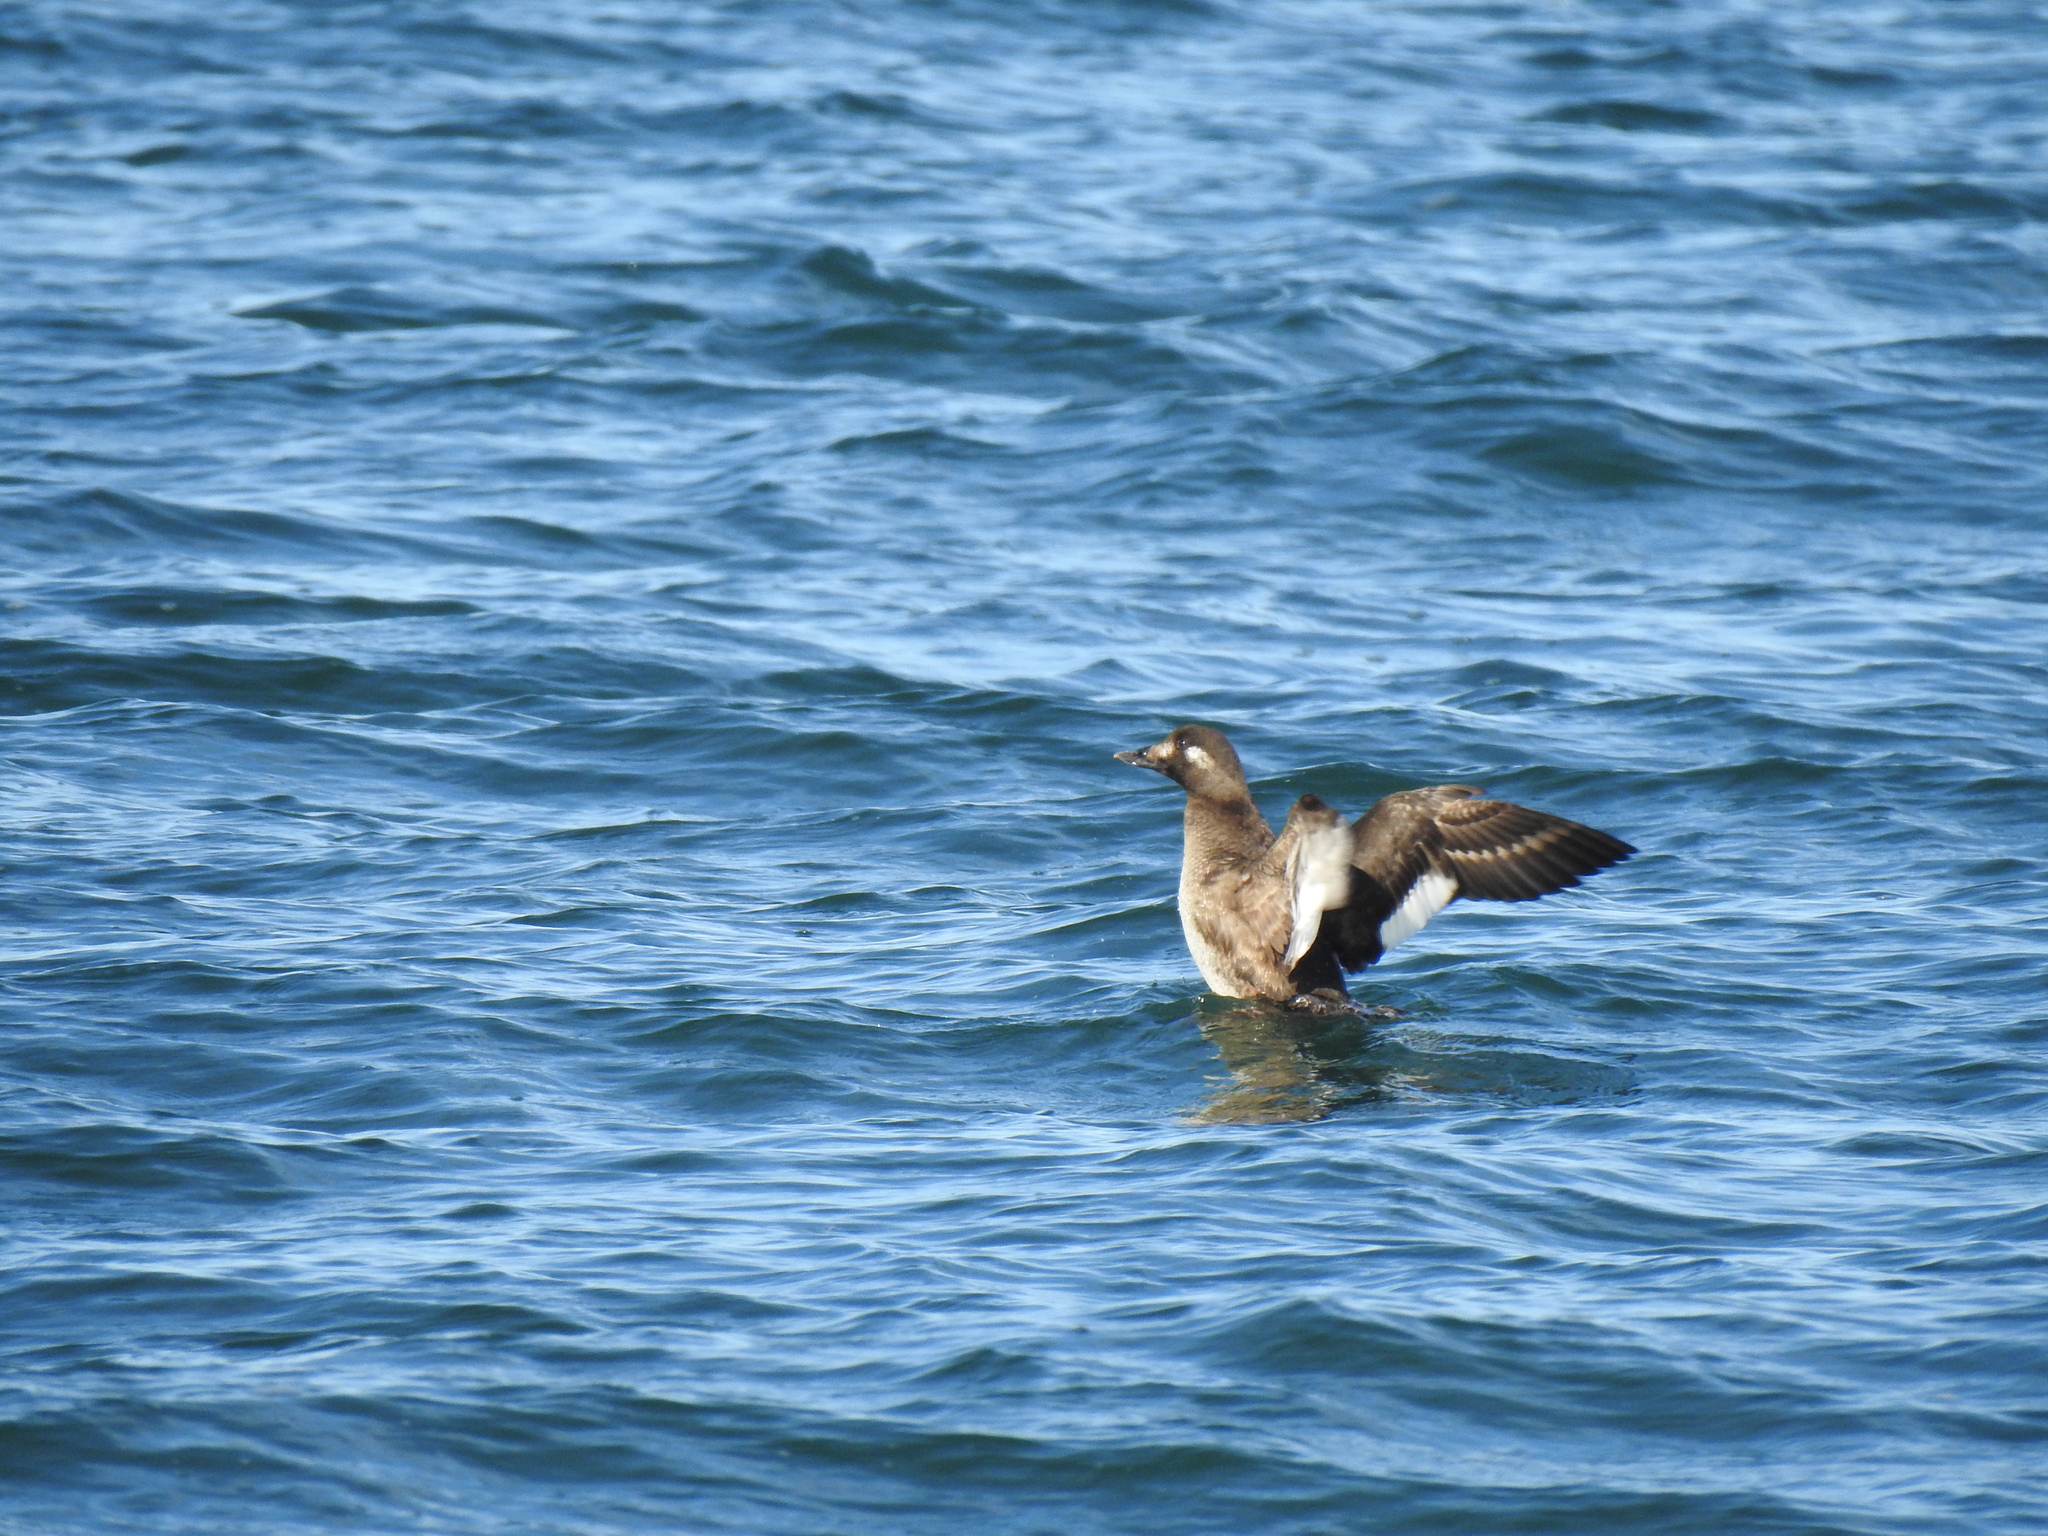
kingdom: Animalia
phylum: Chordata
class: Aves
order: Anseriformes
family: Anatidae
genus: Melanitta
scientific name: Melanitta deglandi
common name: White-winged scoter
